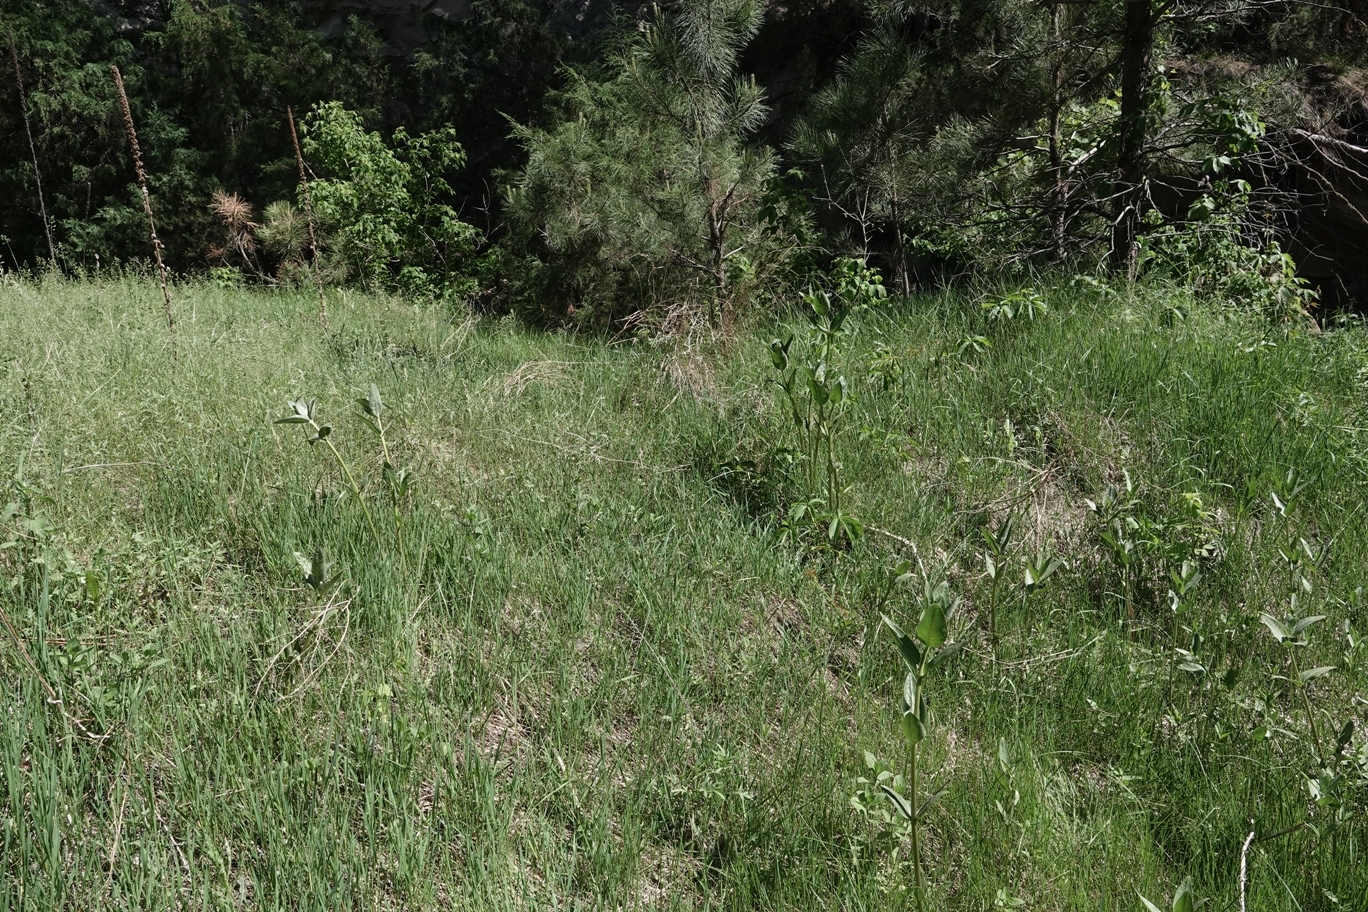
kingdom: Animalia
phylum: Arthropoda
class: Insecta
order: Lepidoptera
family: Nymphalidae
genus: Danaus
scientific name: Danaus plexippus
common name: Monarch
